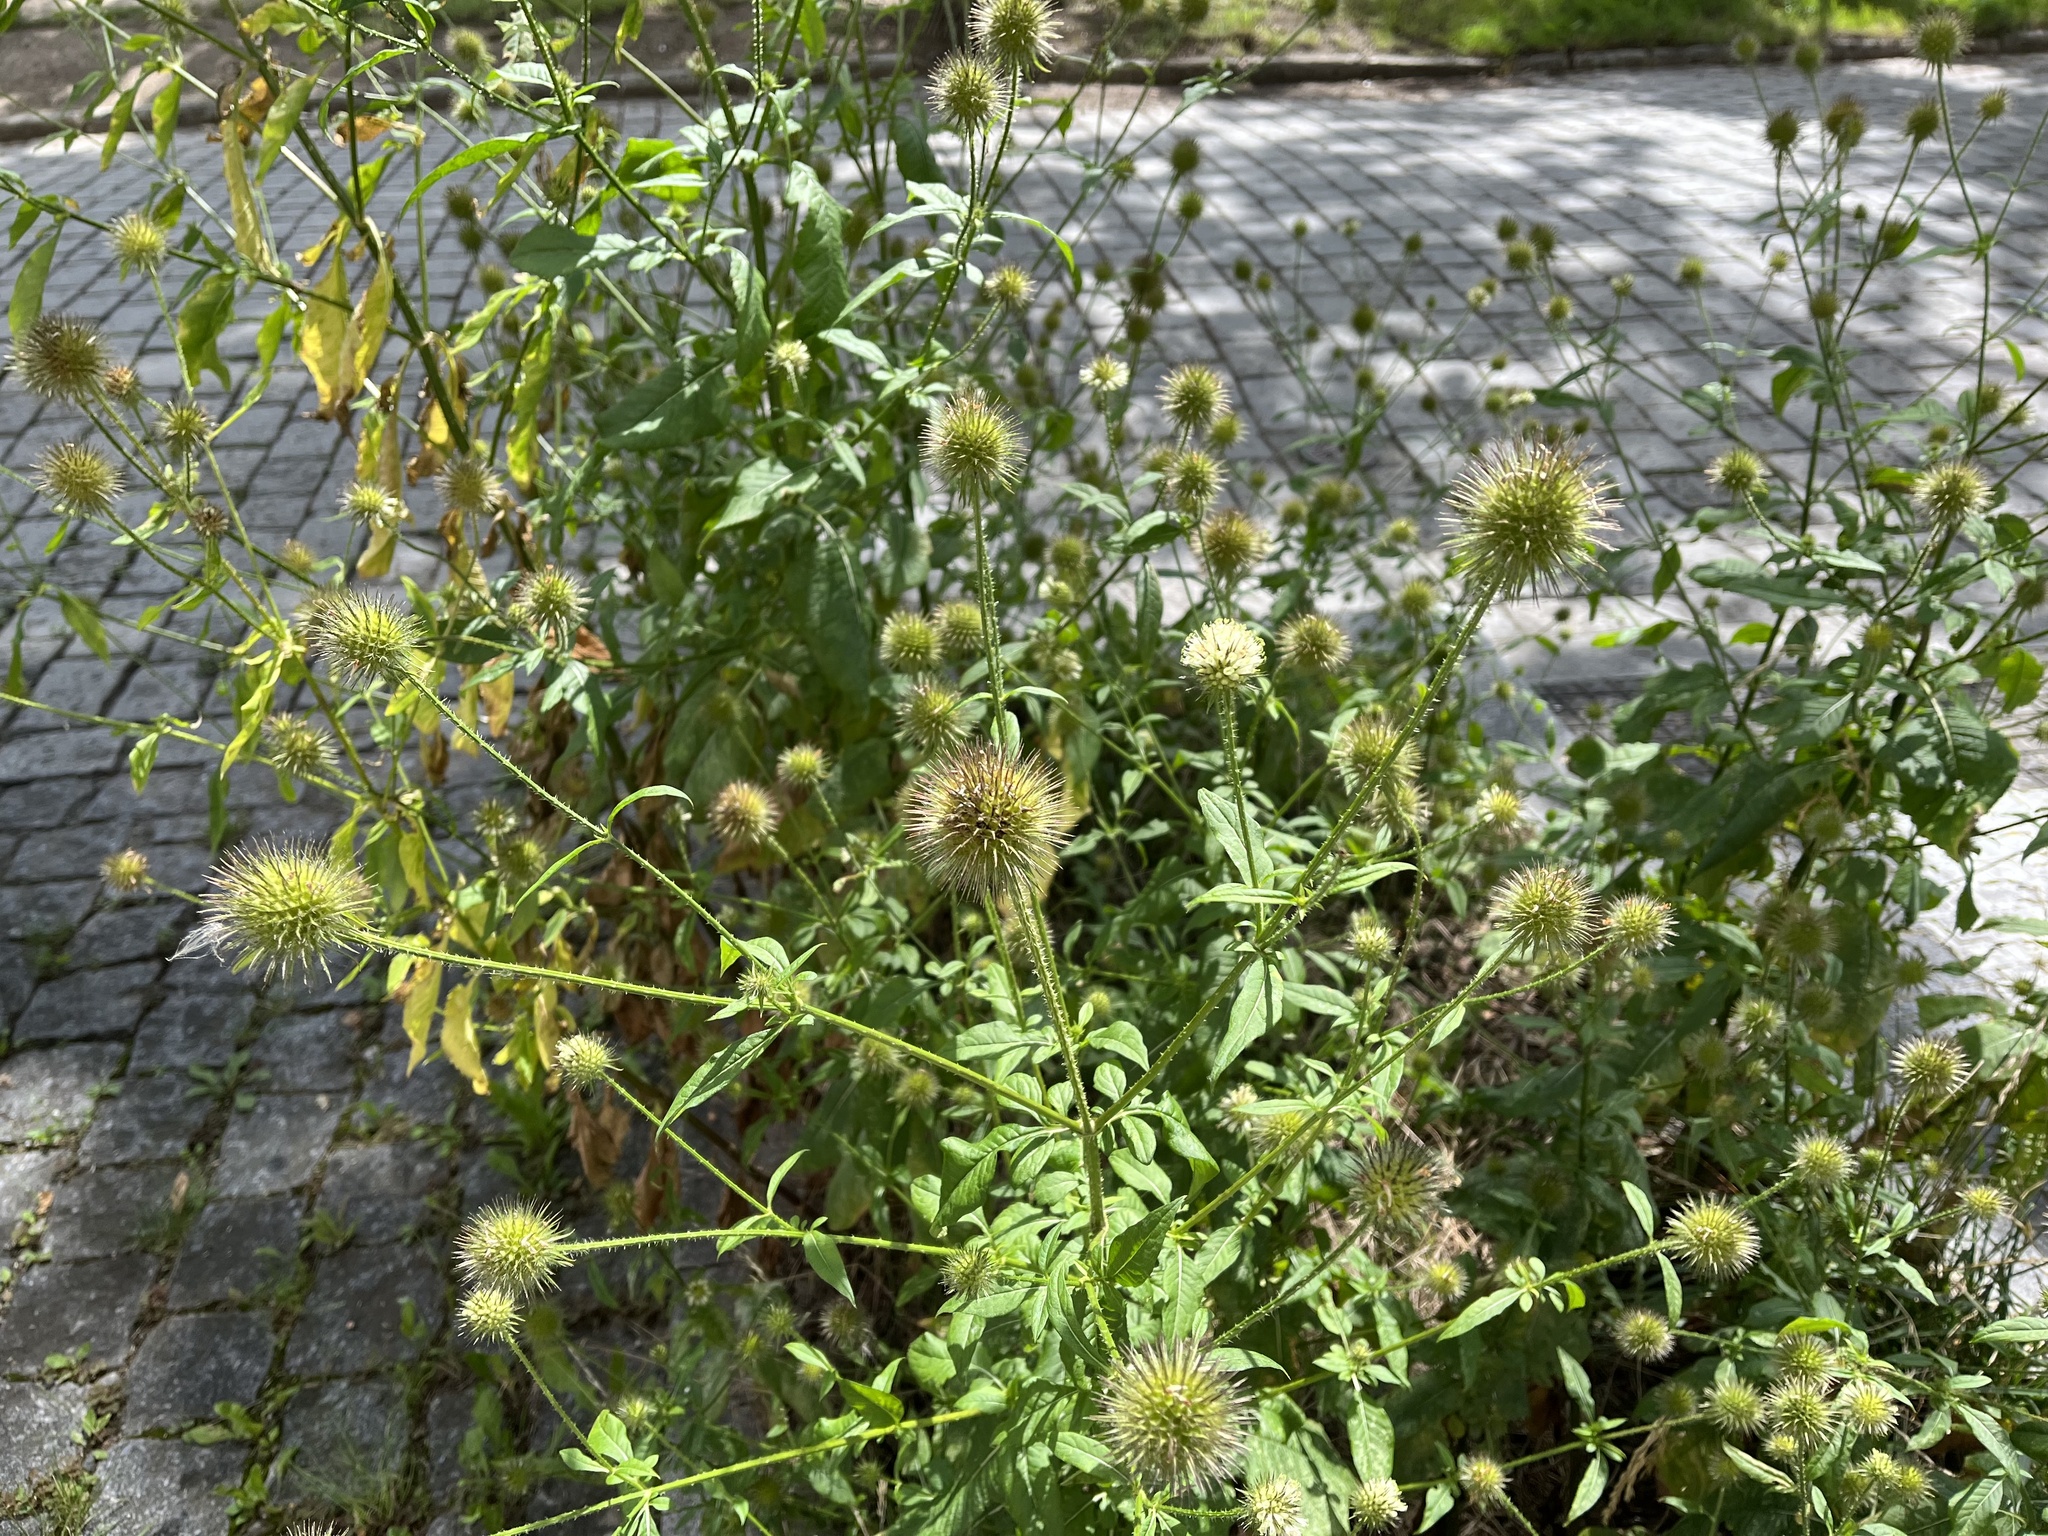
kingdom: Plantae
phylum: Tracheophyta
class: Magnoliopsida
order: Dipsacales
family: Caprifoliaceae
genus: Dipsacus
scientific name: Dipsacus strigosus
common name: Yellow-flowered teasel
